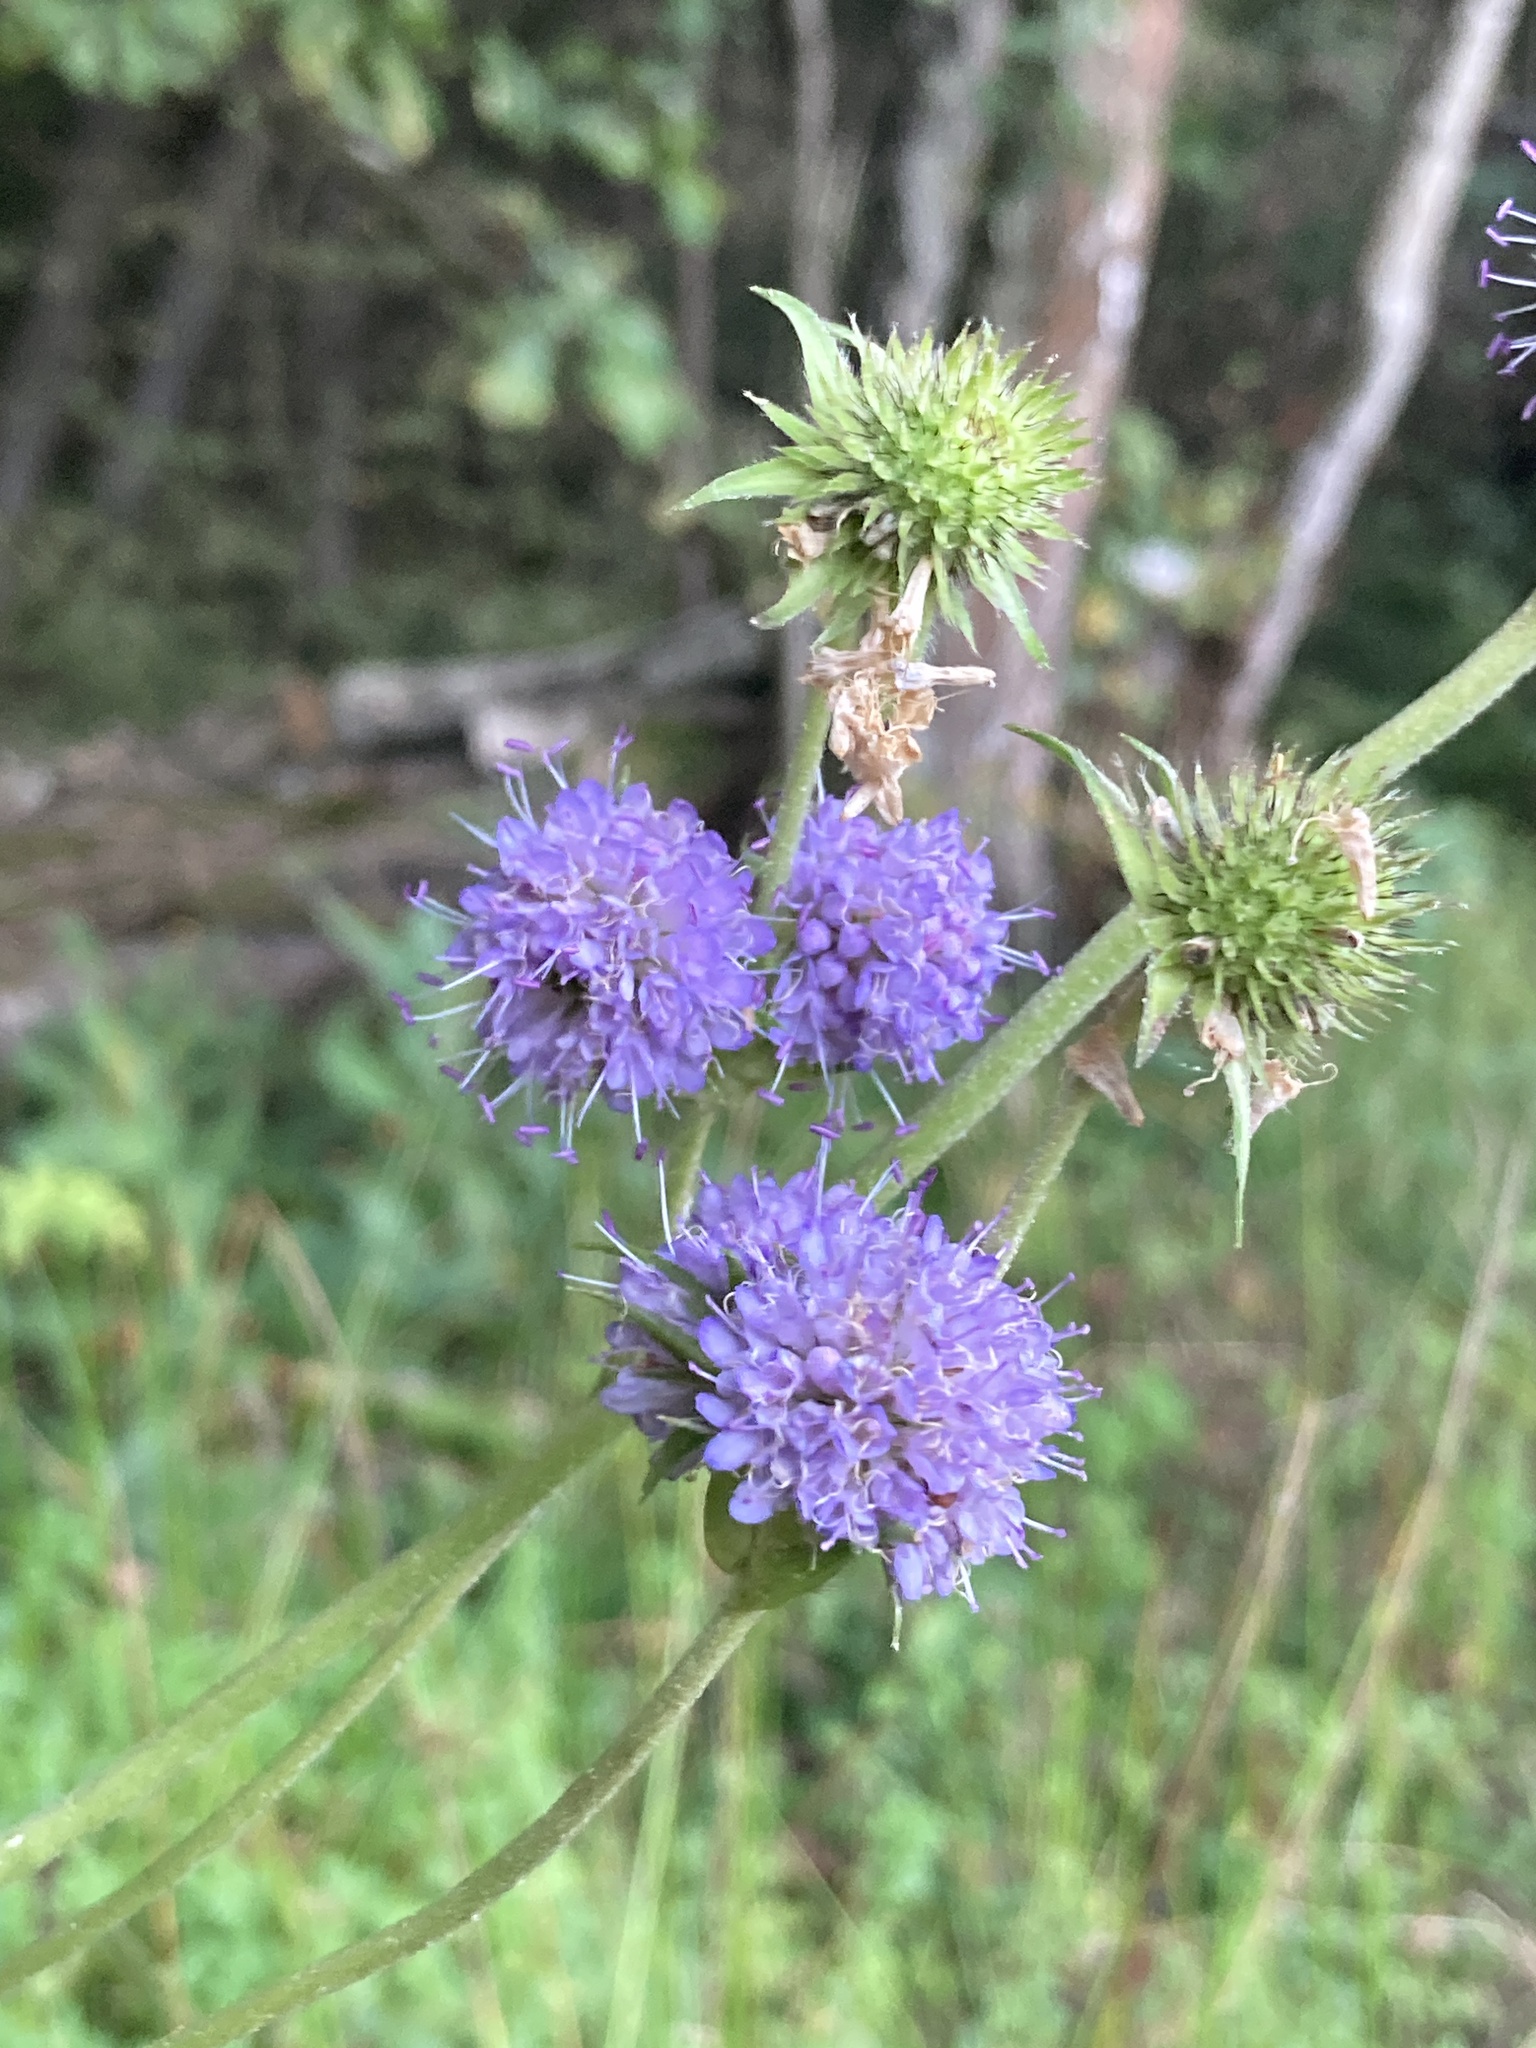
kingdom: Plantae
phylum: Tracheophyta
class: Magnoliopsida
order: Dipsacales
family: Caprifoliaceae
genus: Succisa
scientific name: Succisa pratensis
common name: Devil's-bit
